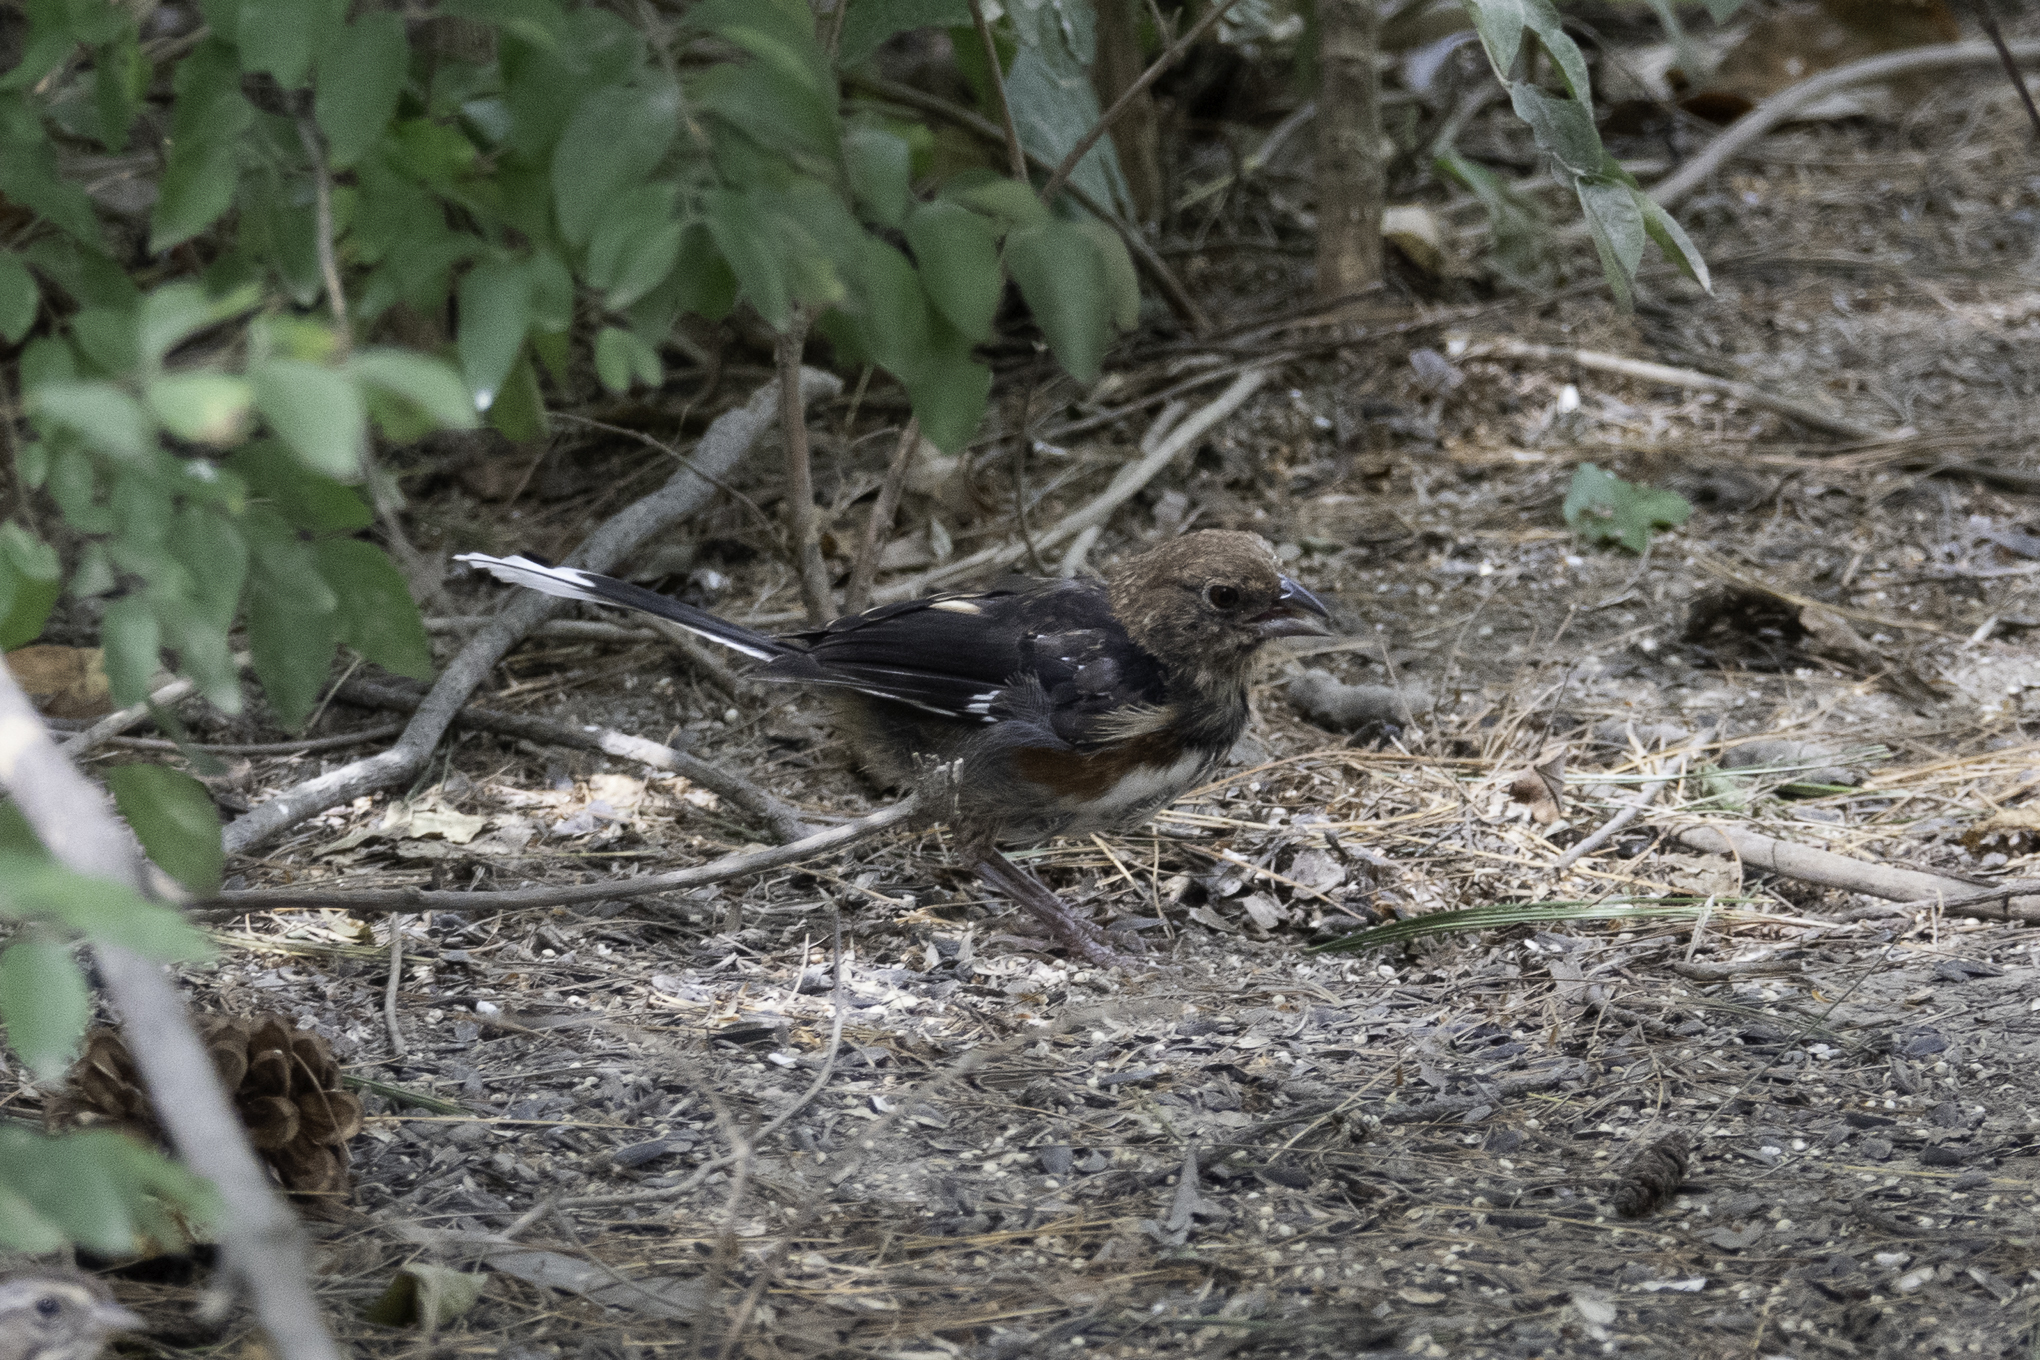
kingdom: Animalia
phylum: Chordata
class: Aves
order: Passeriformes
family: Passerellidae
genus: Pipilo
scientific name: Pipilo erythrophthalmus
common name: Eastern towhee
